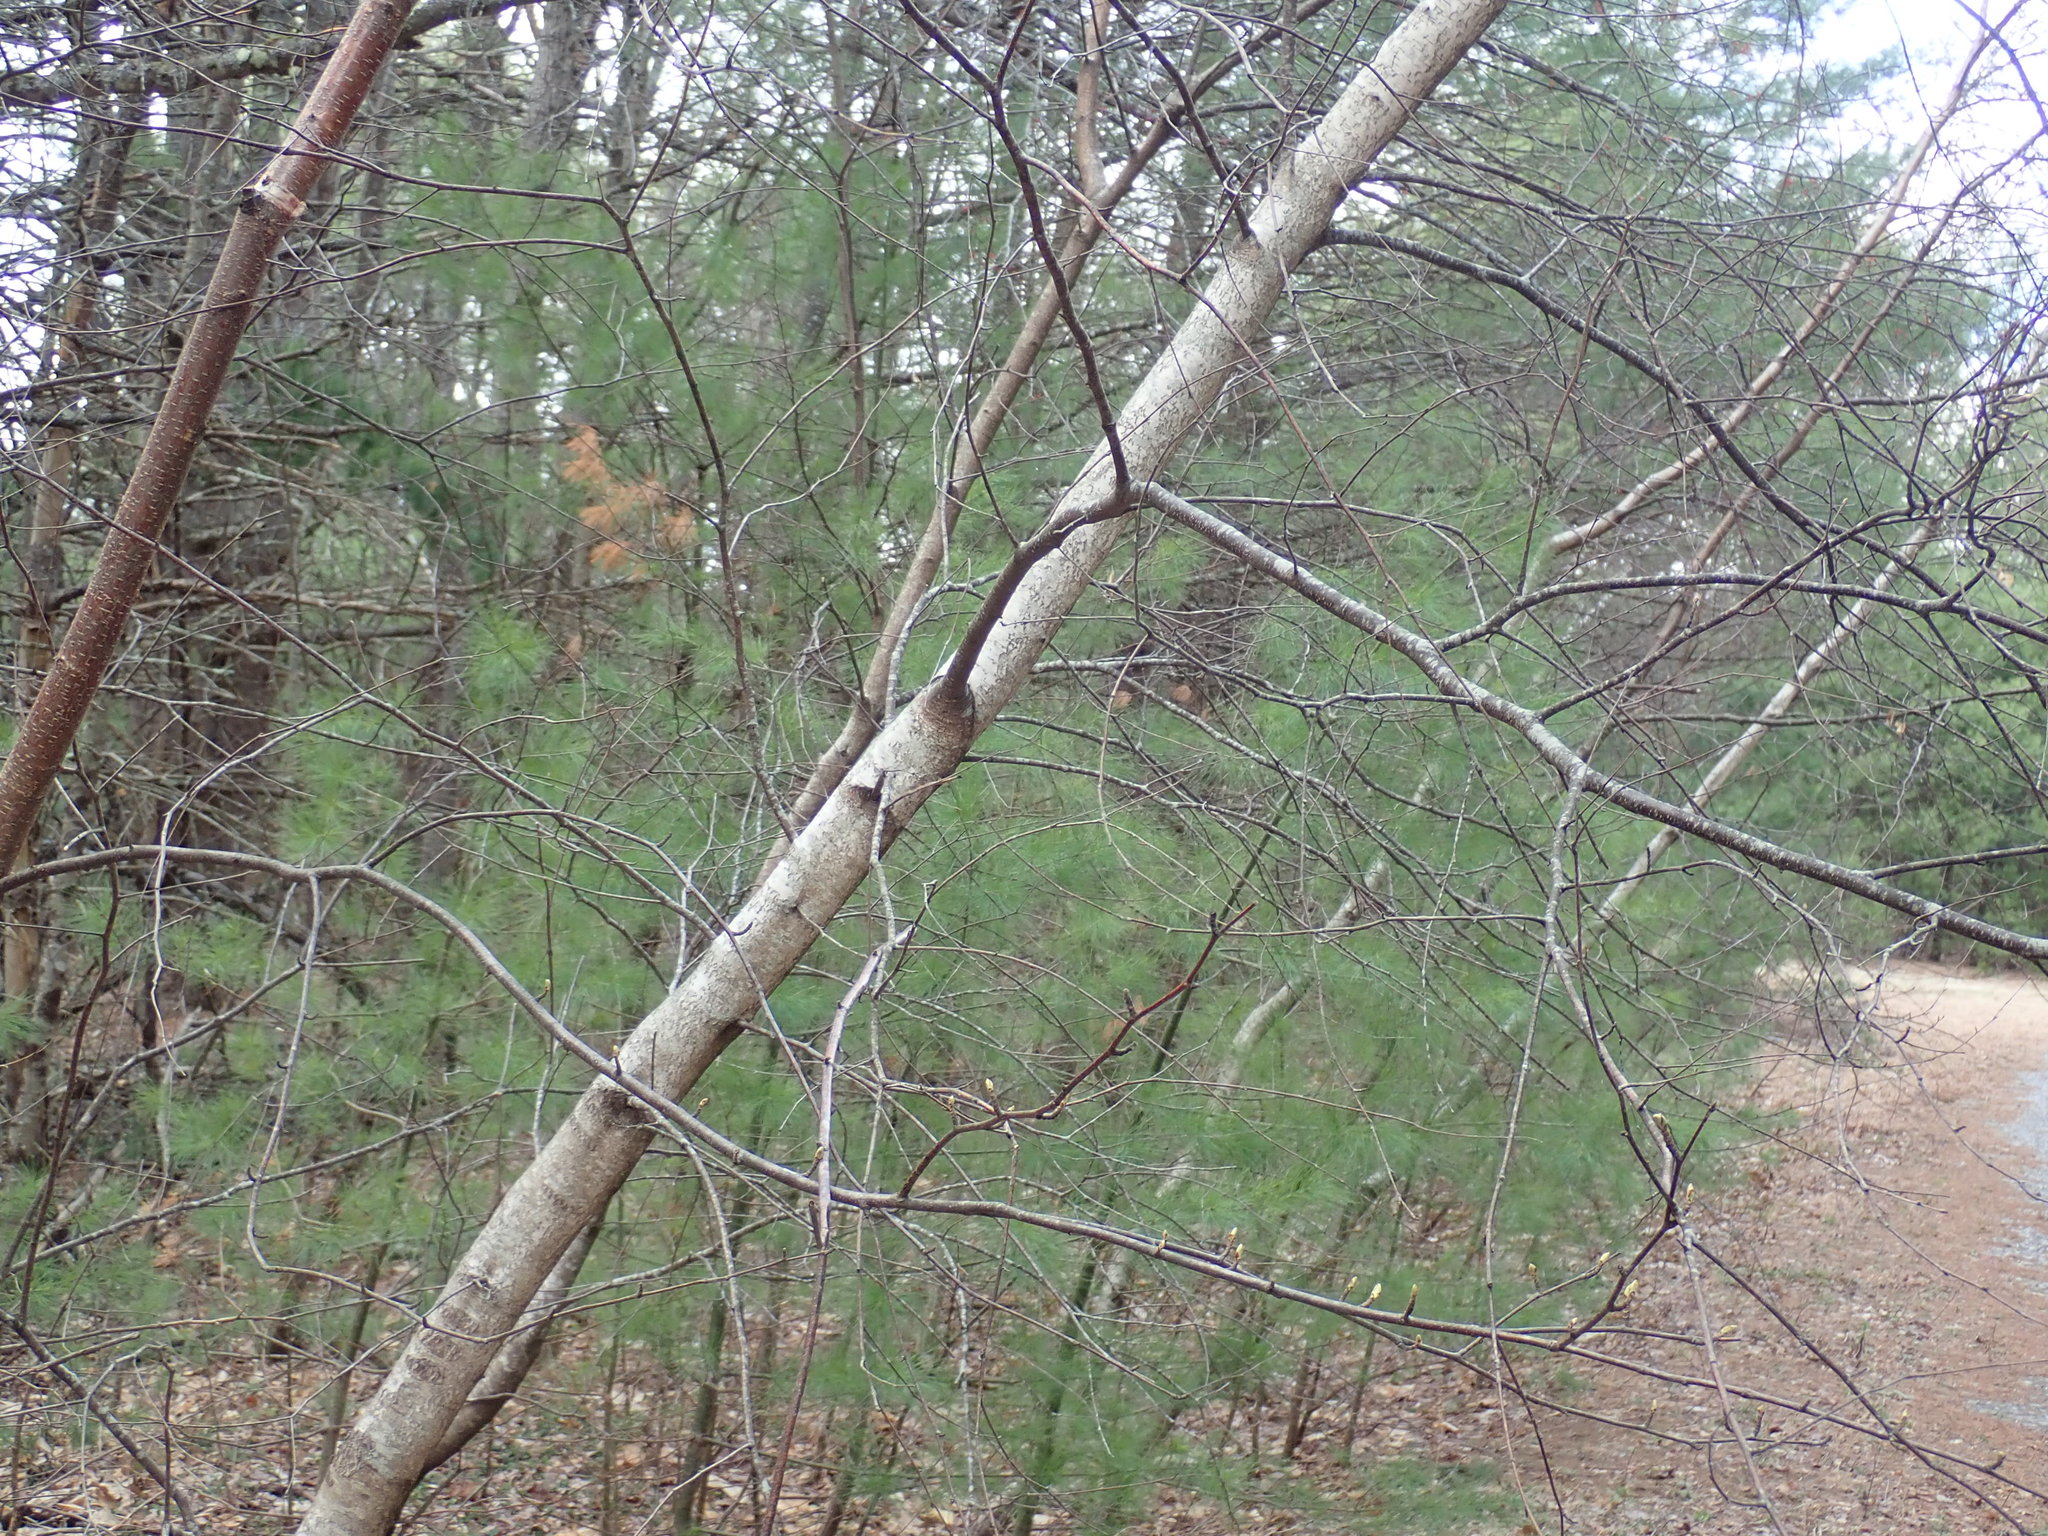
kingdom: Plantae
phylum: Tracheophyta
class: Magnoliopsida
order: Fagales
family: Betulaceae
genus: Betula
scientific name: Betula populifolia
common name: Fire birch
